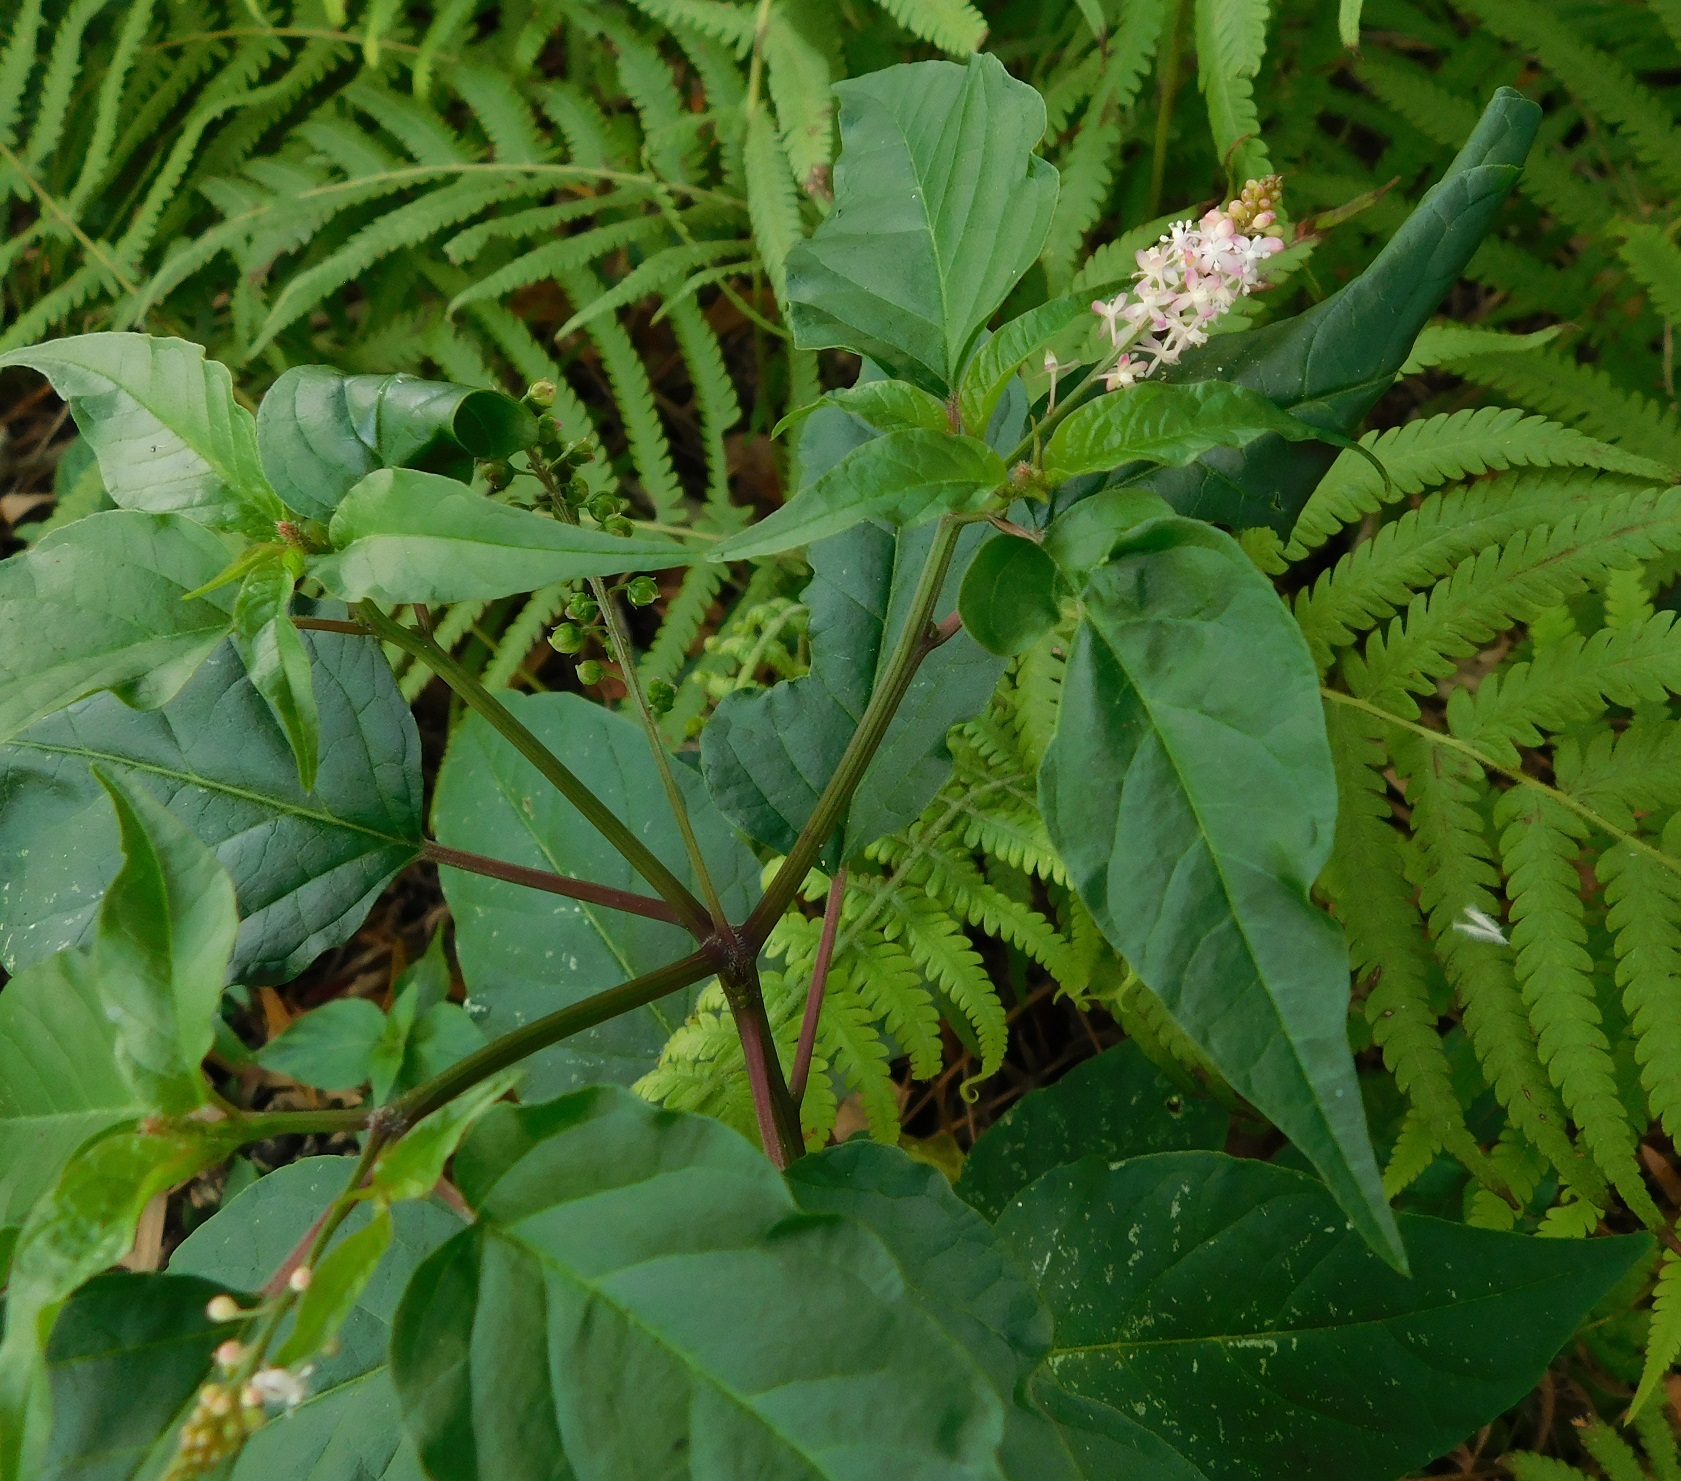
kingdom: Plantae
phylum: Tracheophyta
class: Magnoliopsida
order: Caryophyllales
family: Phytolaccaceae
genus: Rivina
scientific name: Rivina humilis
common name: Rougeplant
